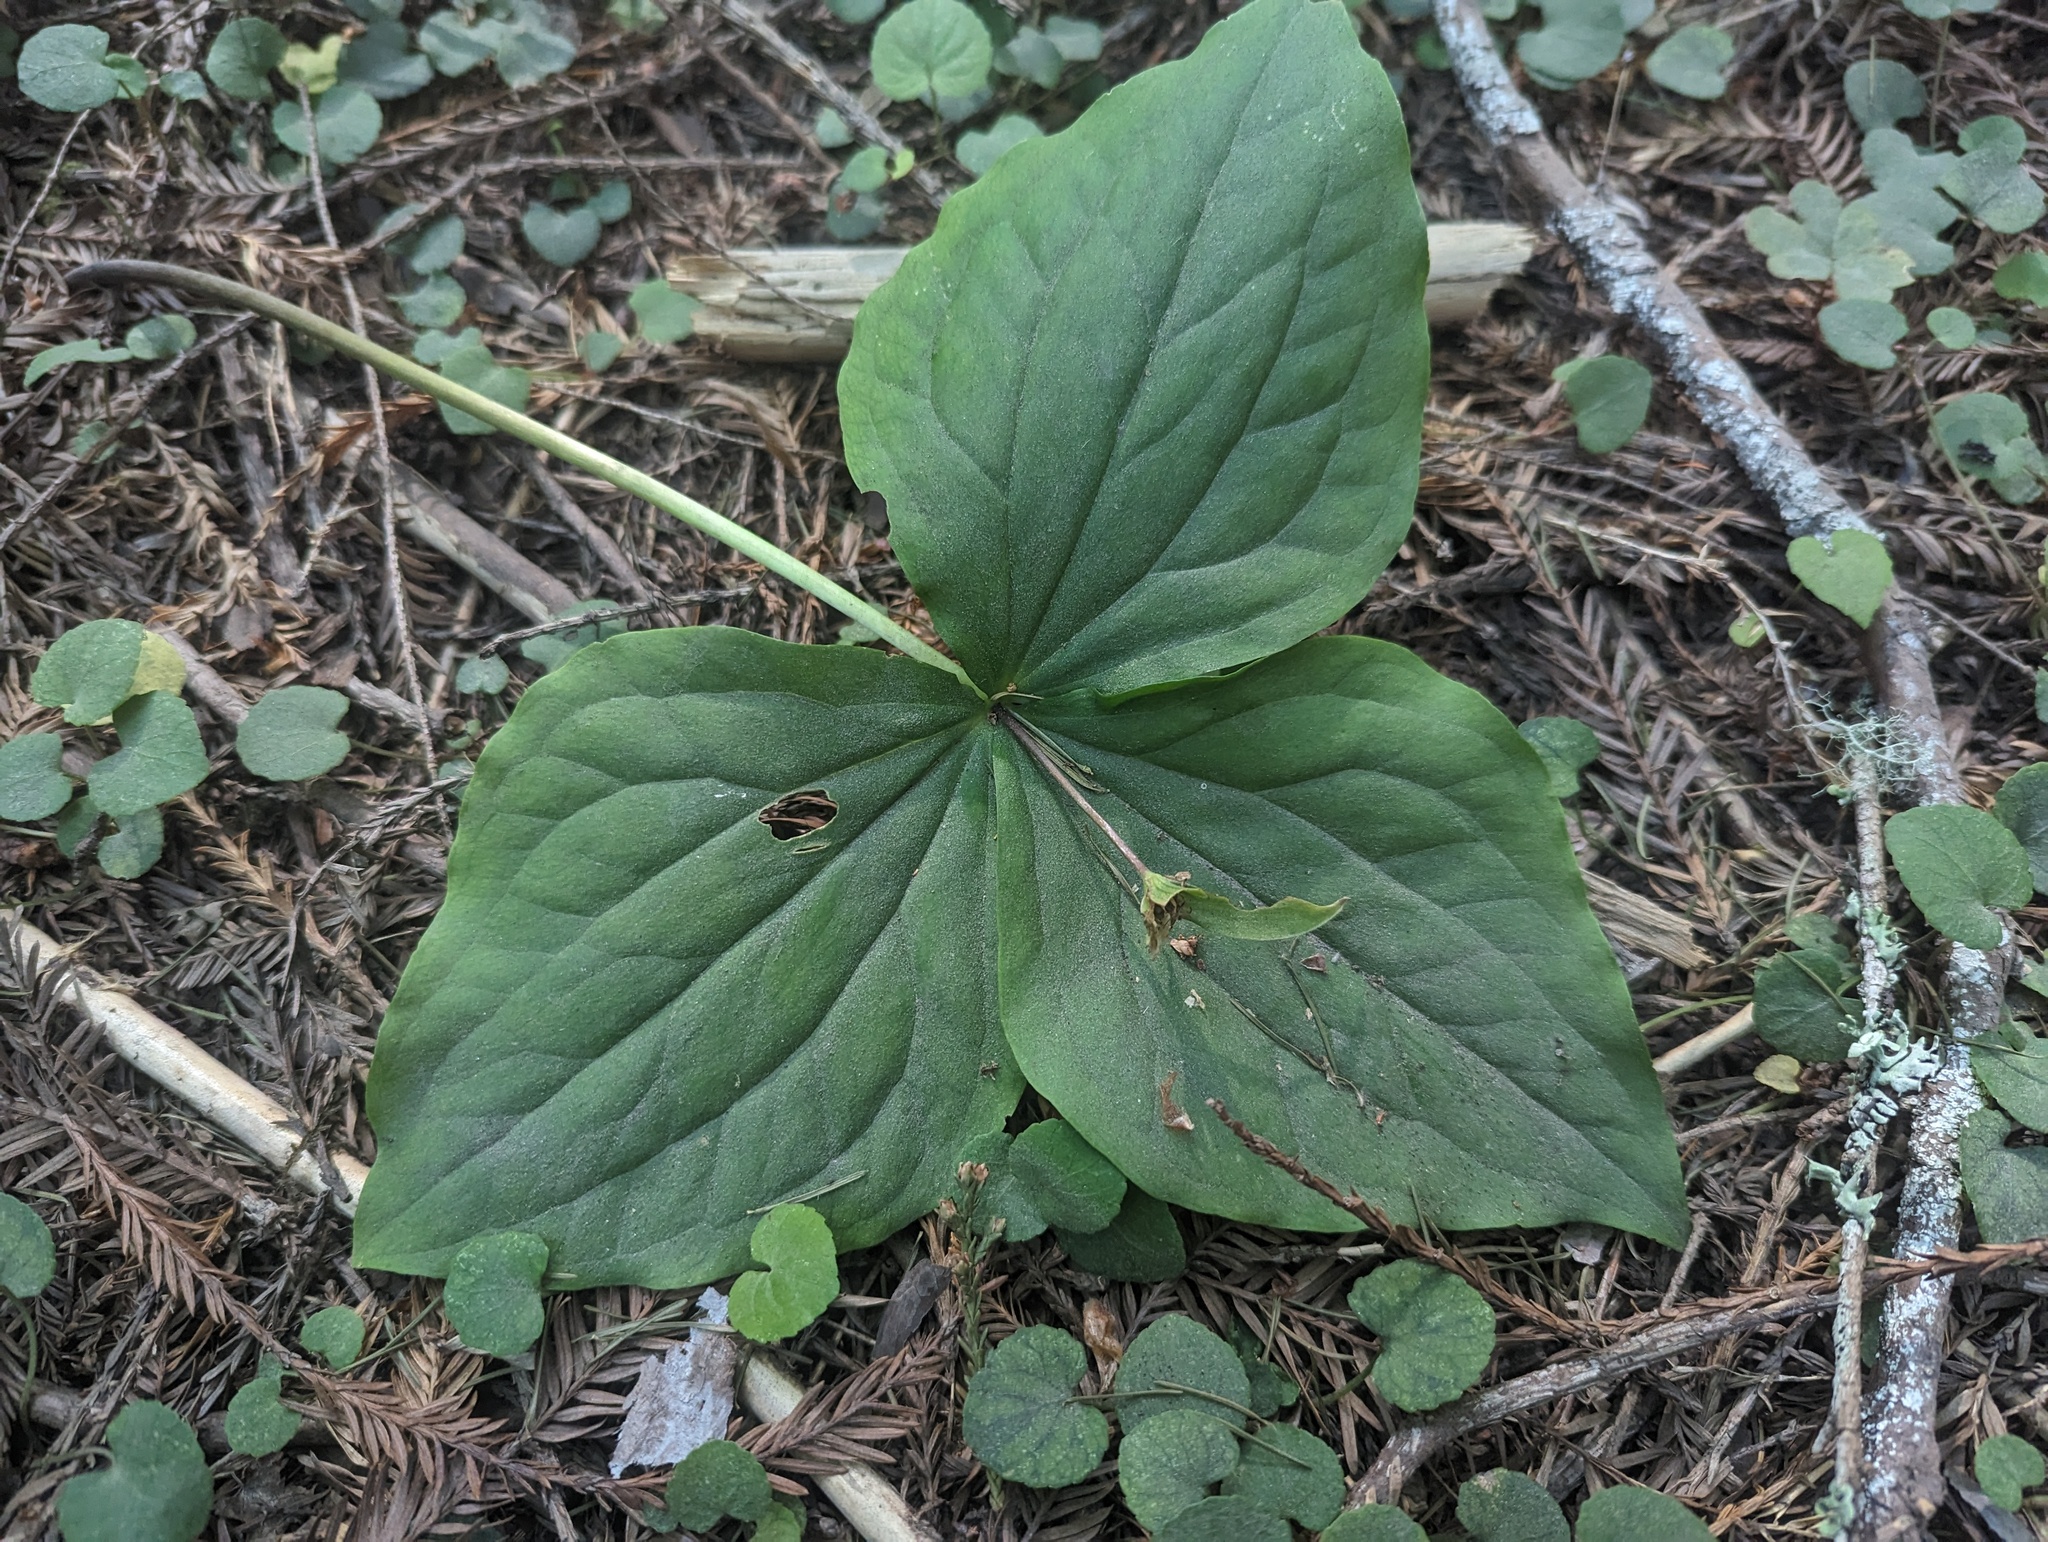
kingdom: Plantae
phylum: Tracheophyta
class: Liliopsida
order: Liliales
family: Melanthiaceae
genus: Trillium
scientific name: Trillium ovatum
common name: Pacific trillium
